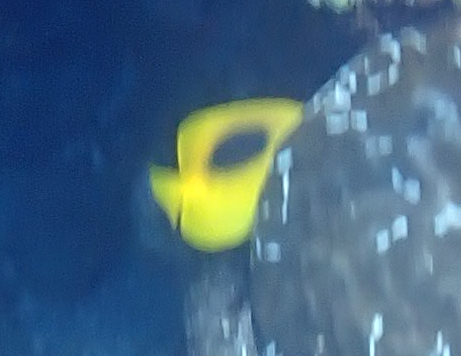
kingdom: Animalia
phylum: Chordata
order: Perciformes
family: Chaetodontidae
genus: Chaetodon
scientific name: Chaetodon speculum
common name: Mirror butterflyfish
